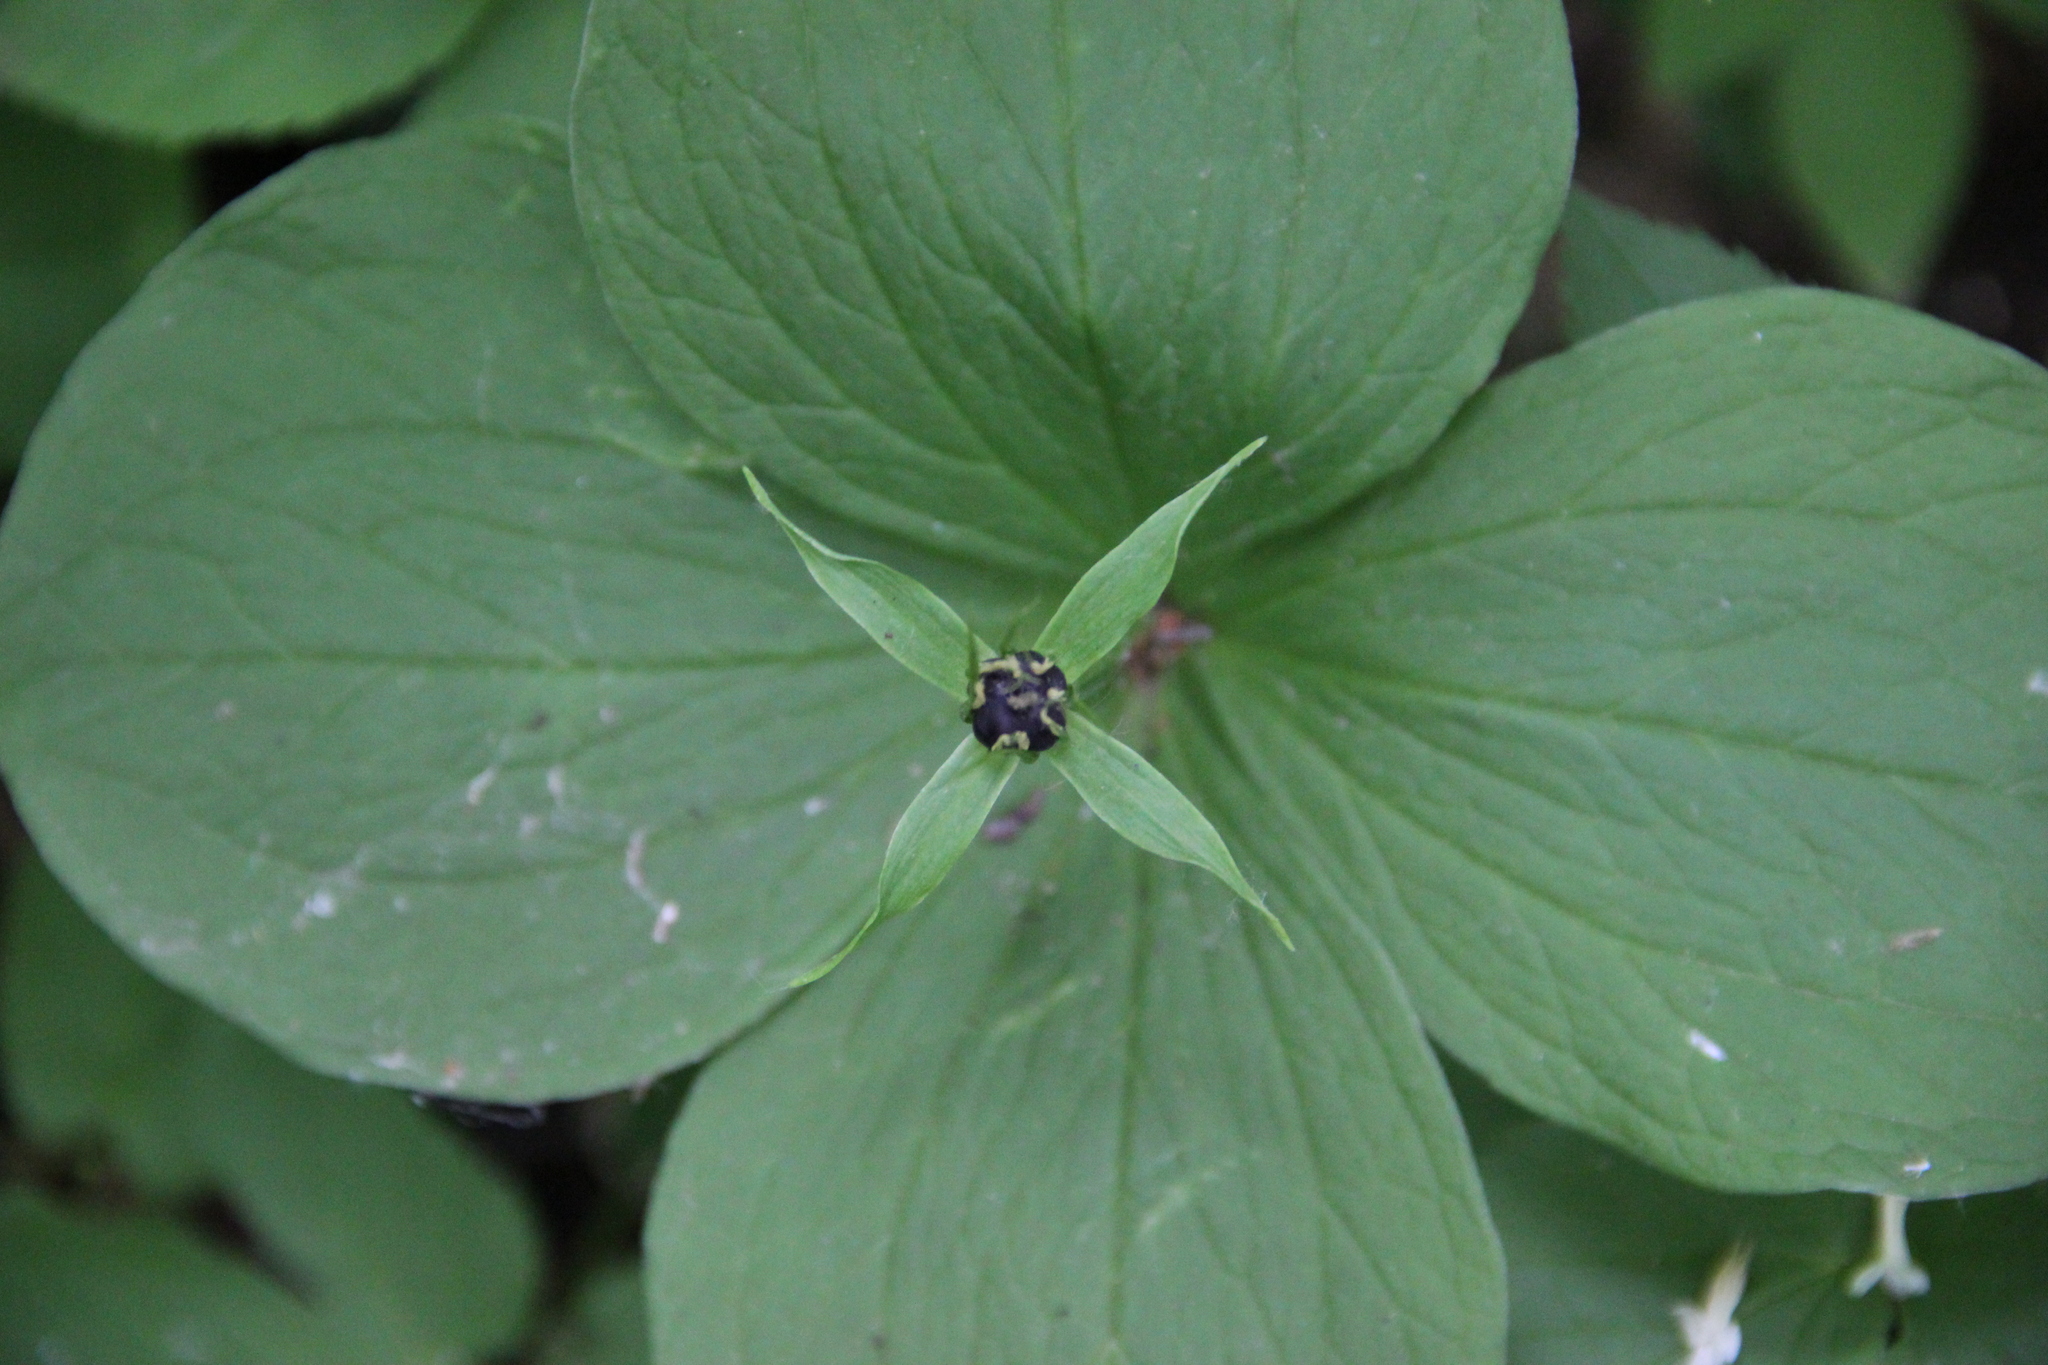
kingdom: Plantae
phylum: Tracheophyta
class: Liliopsida
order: Liliales
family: Melanthiaceae
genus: Paris
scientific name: Paris quadrifolia
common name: Herb-paris
